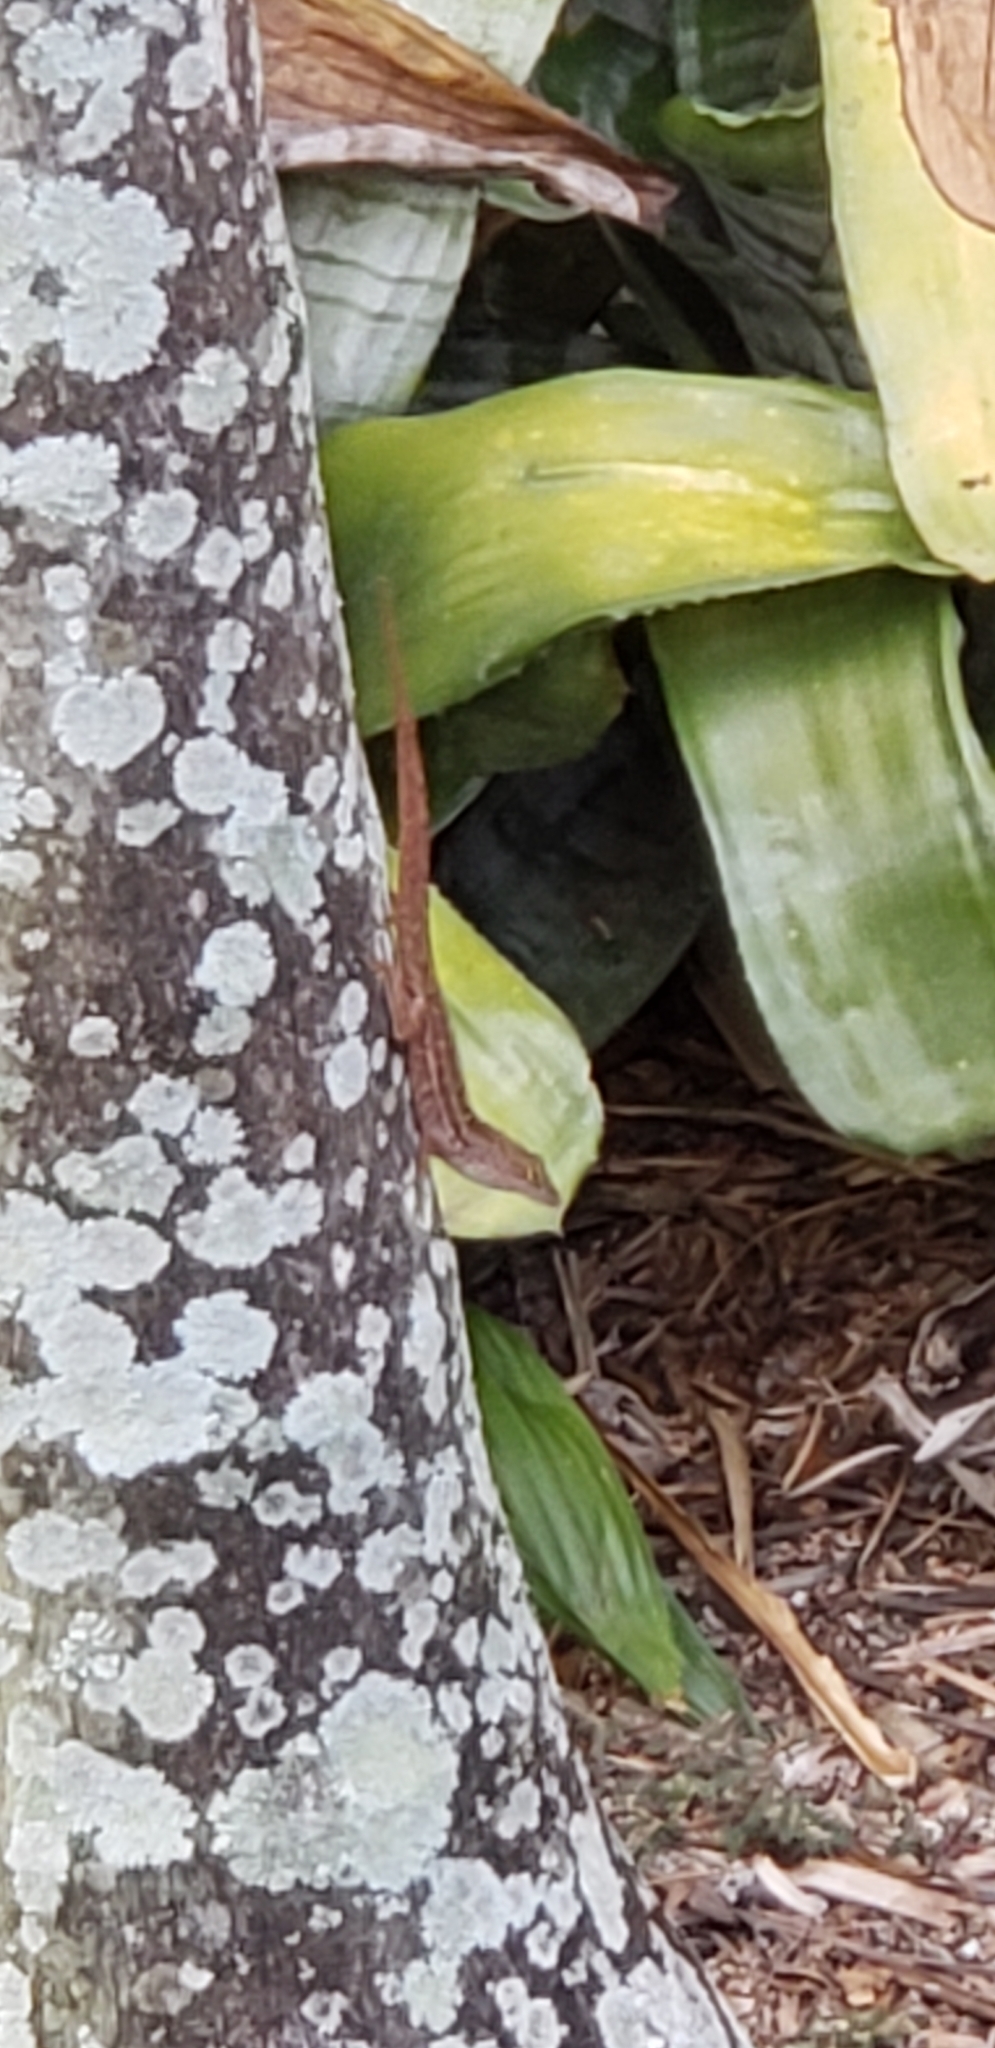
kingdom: Animalia
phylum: Chordata
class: Squamata
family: Dactyloidae
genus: Anolis
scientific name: Anolis sagrei
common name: Brown anole
